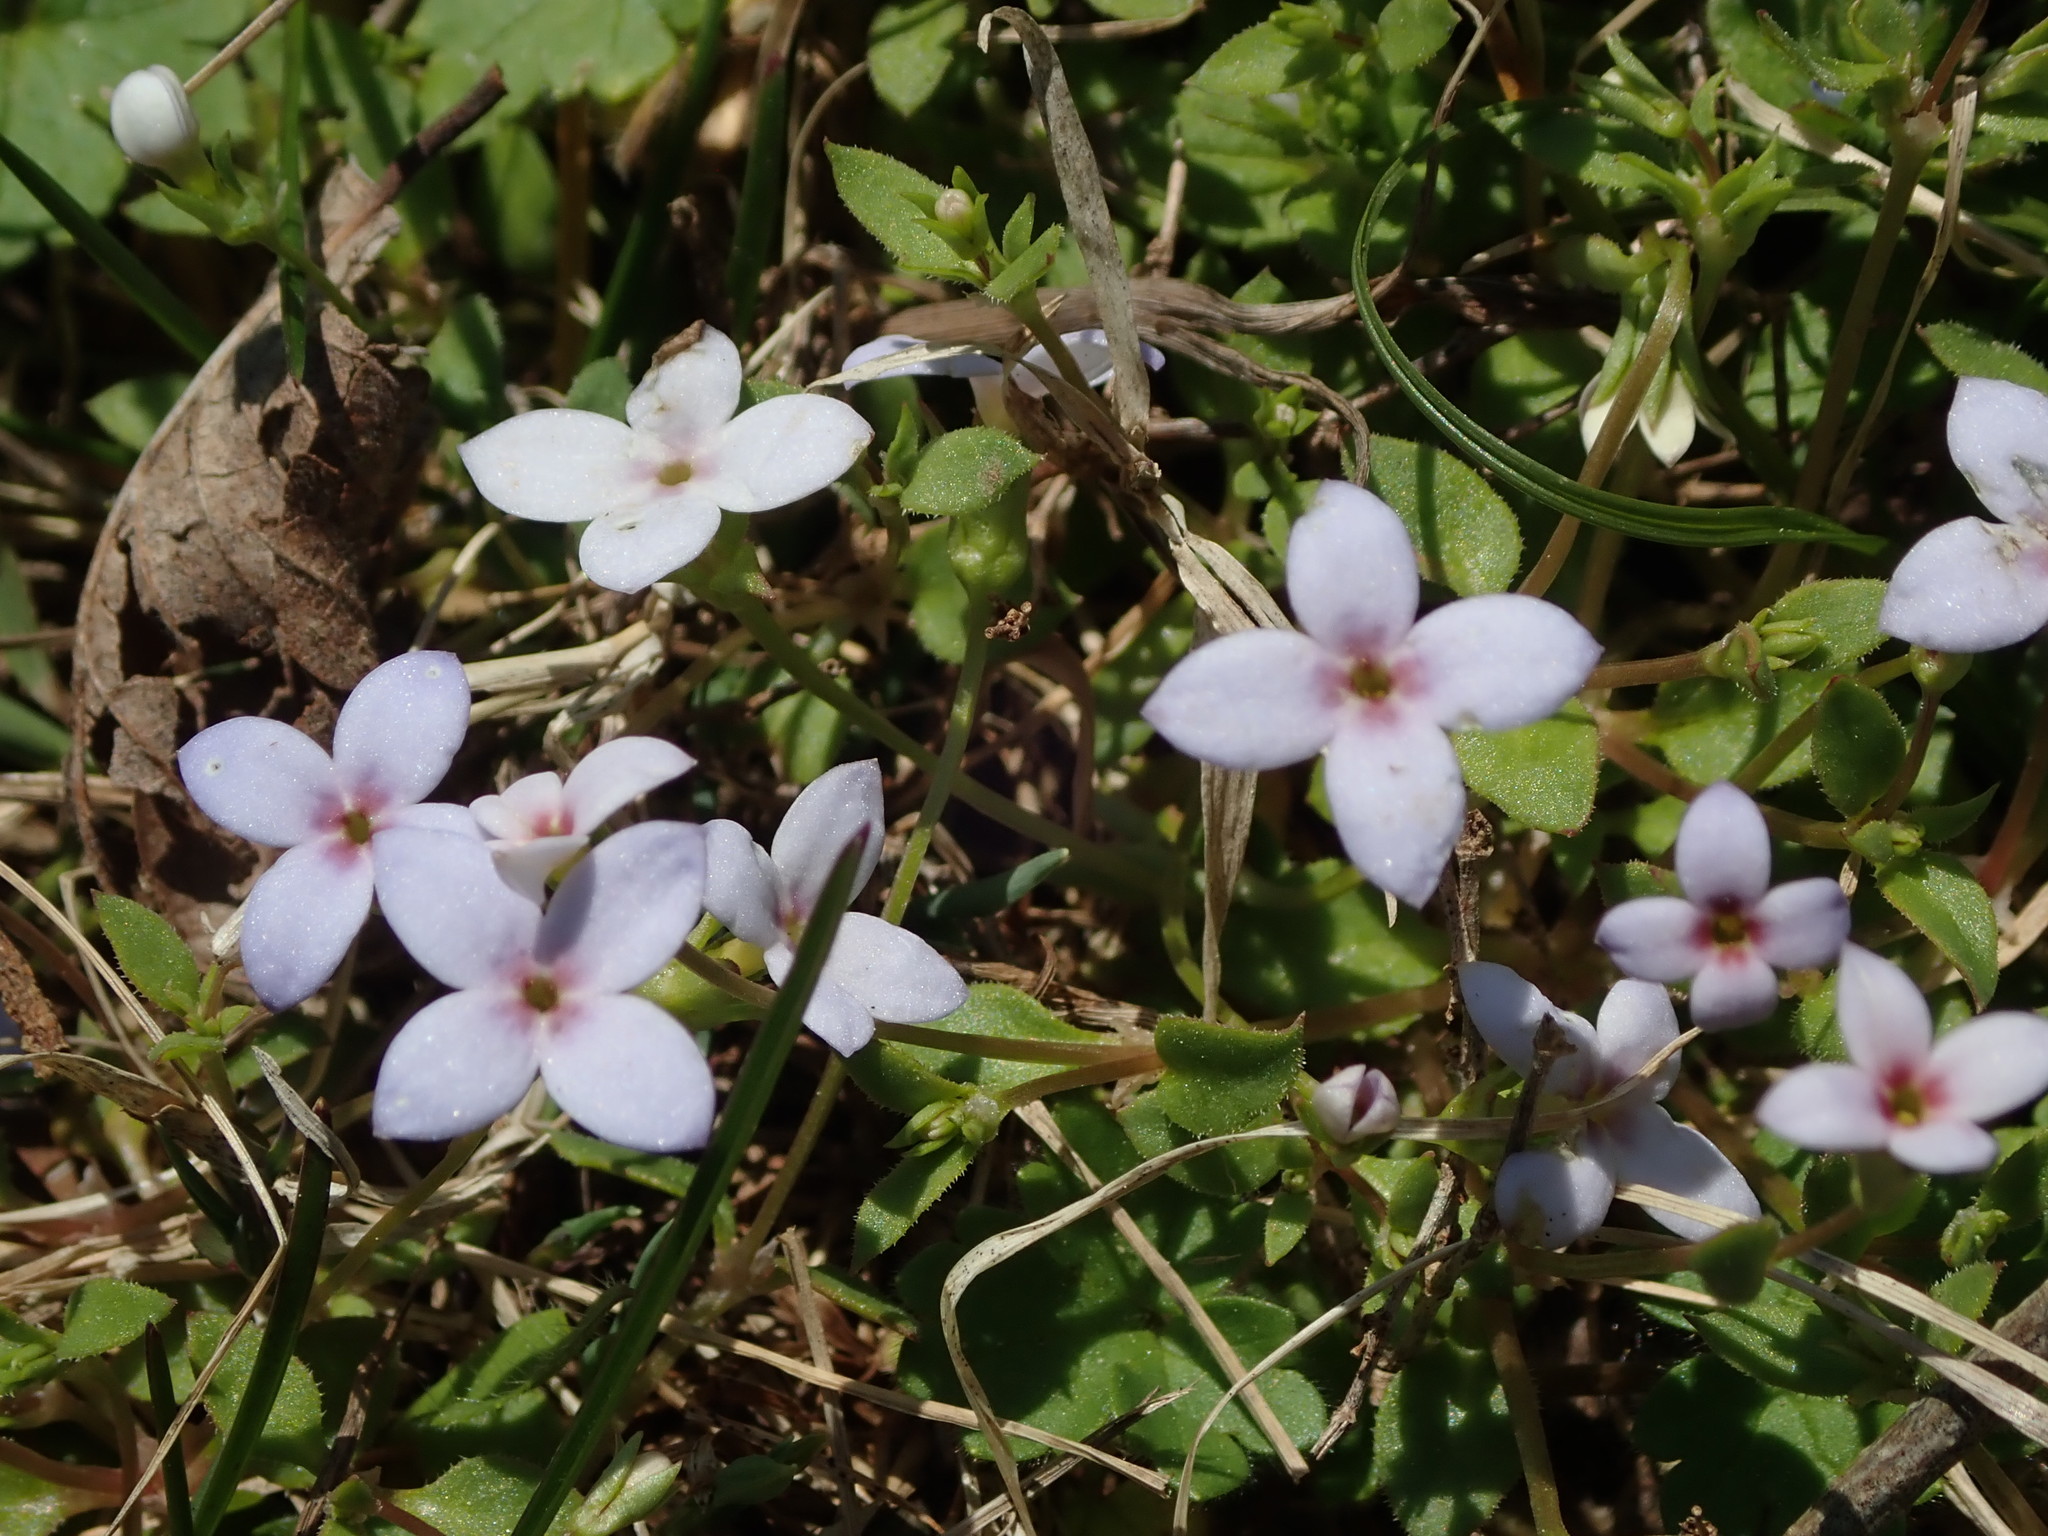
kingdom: Plantae
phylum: Tracheophyta
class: Magnoliopsida
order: Gentianales
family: Rubiaceae
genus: Houstonia
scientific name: Houstonia pusilla
